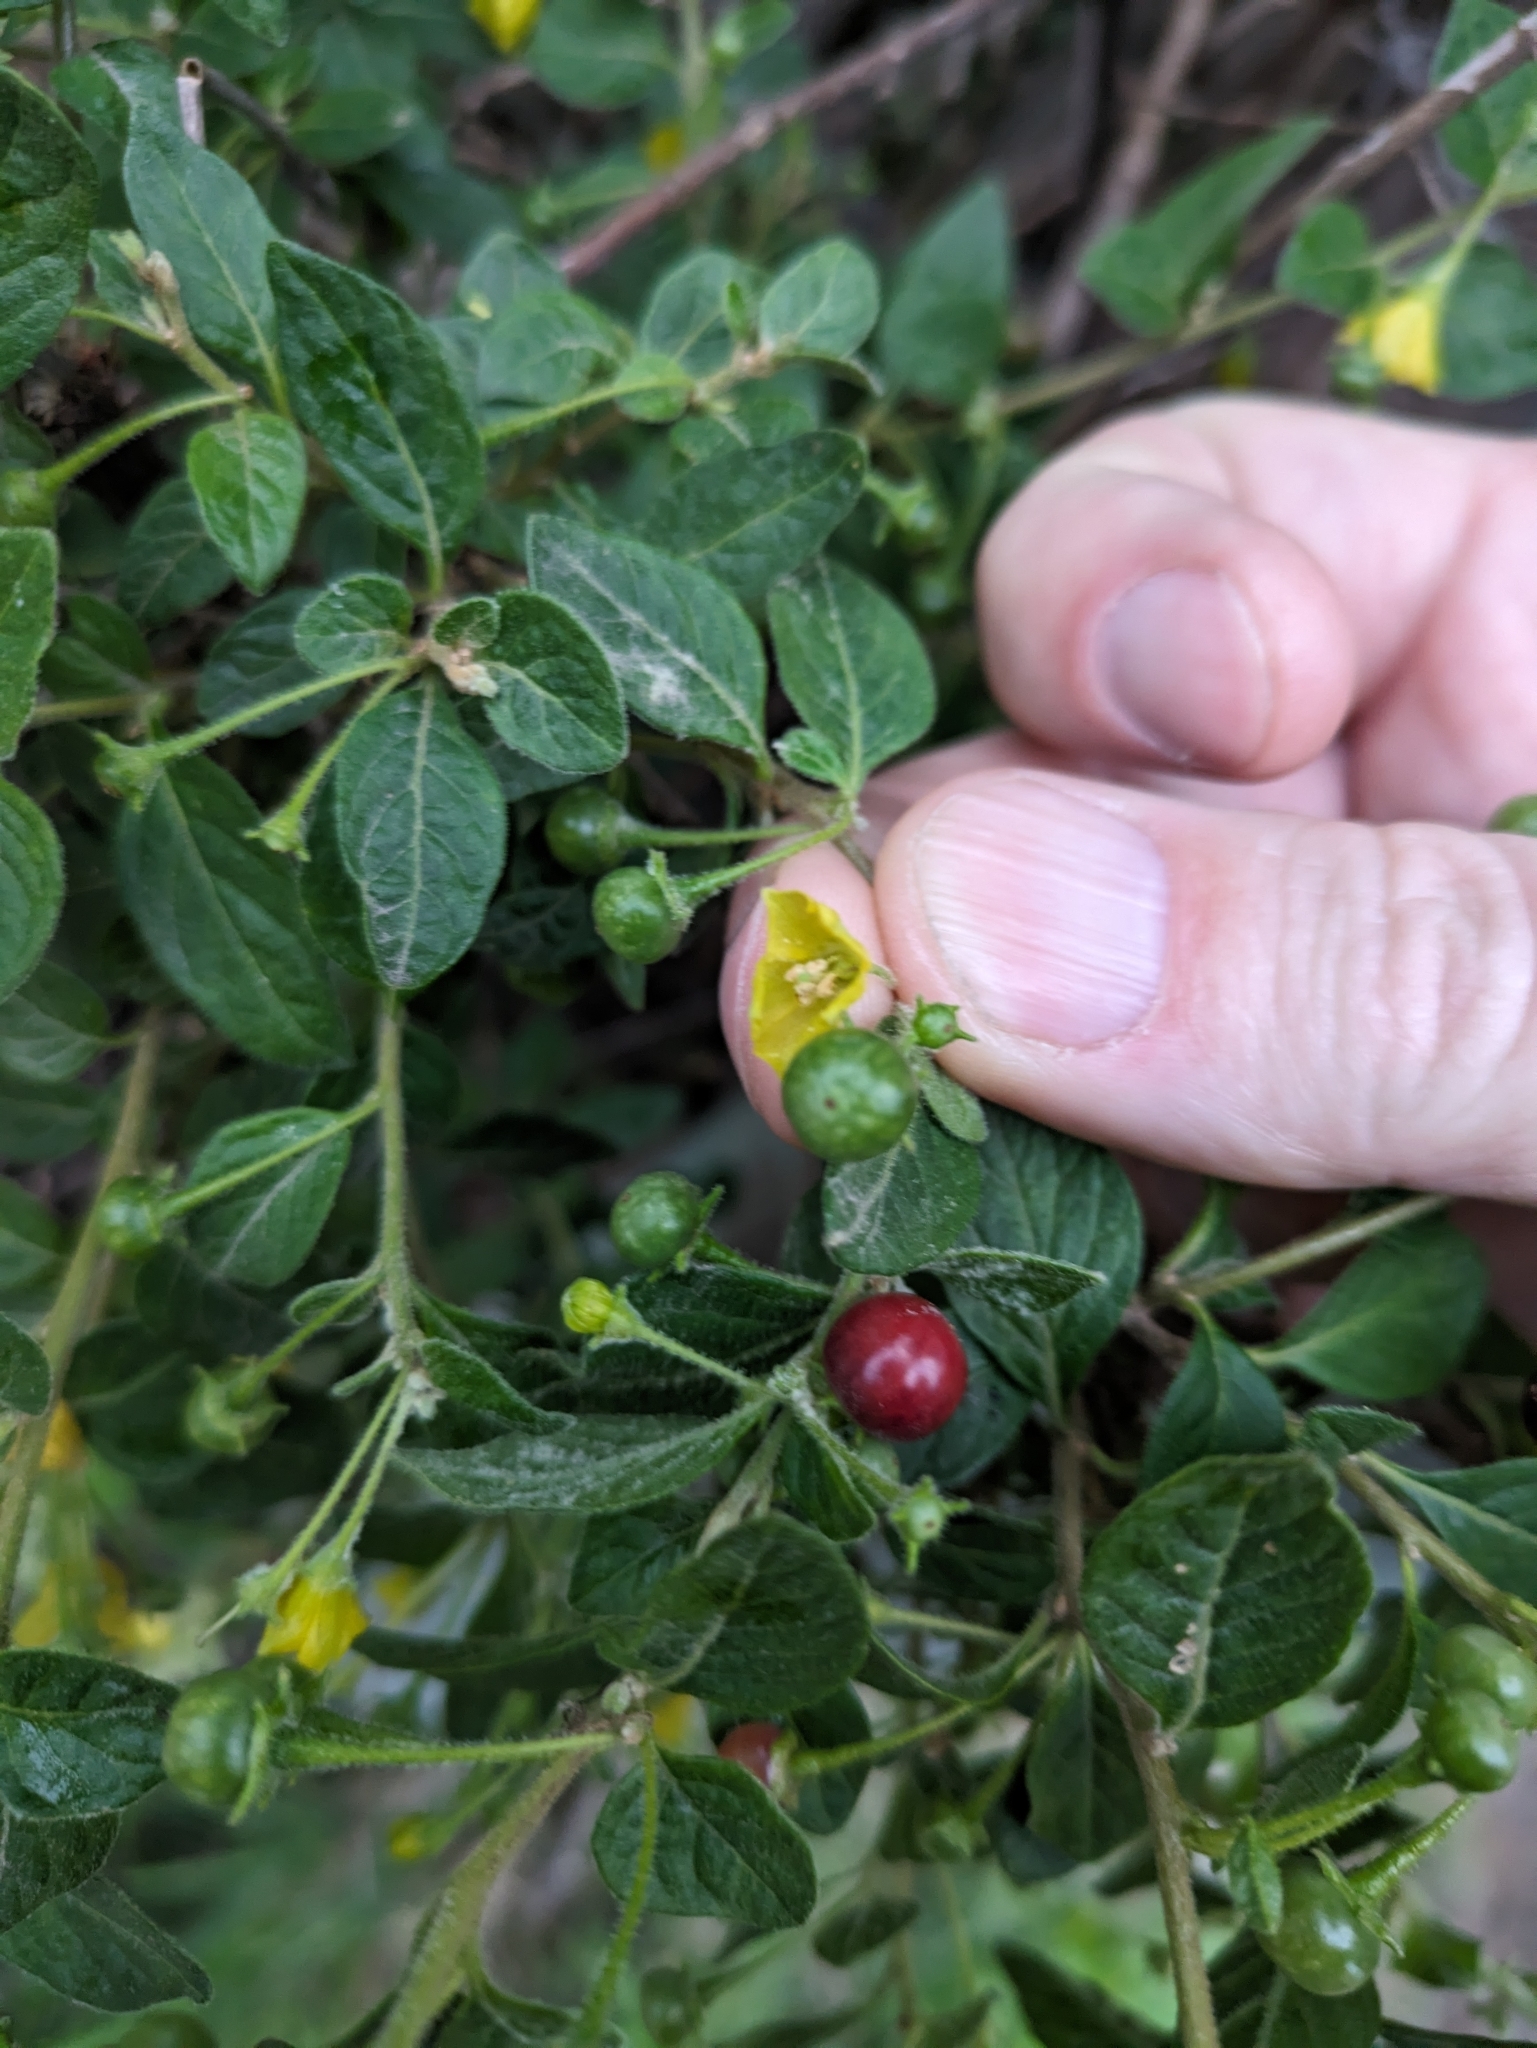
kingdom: Plantae
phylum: Tracheophyta
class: Magnoliopsida
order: Solanales
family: Solanaceae
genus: Capsicum
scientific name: Capsicum rhomboideum
